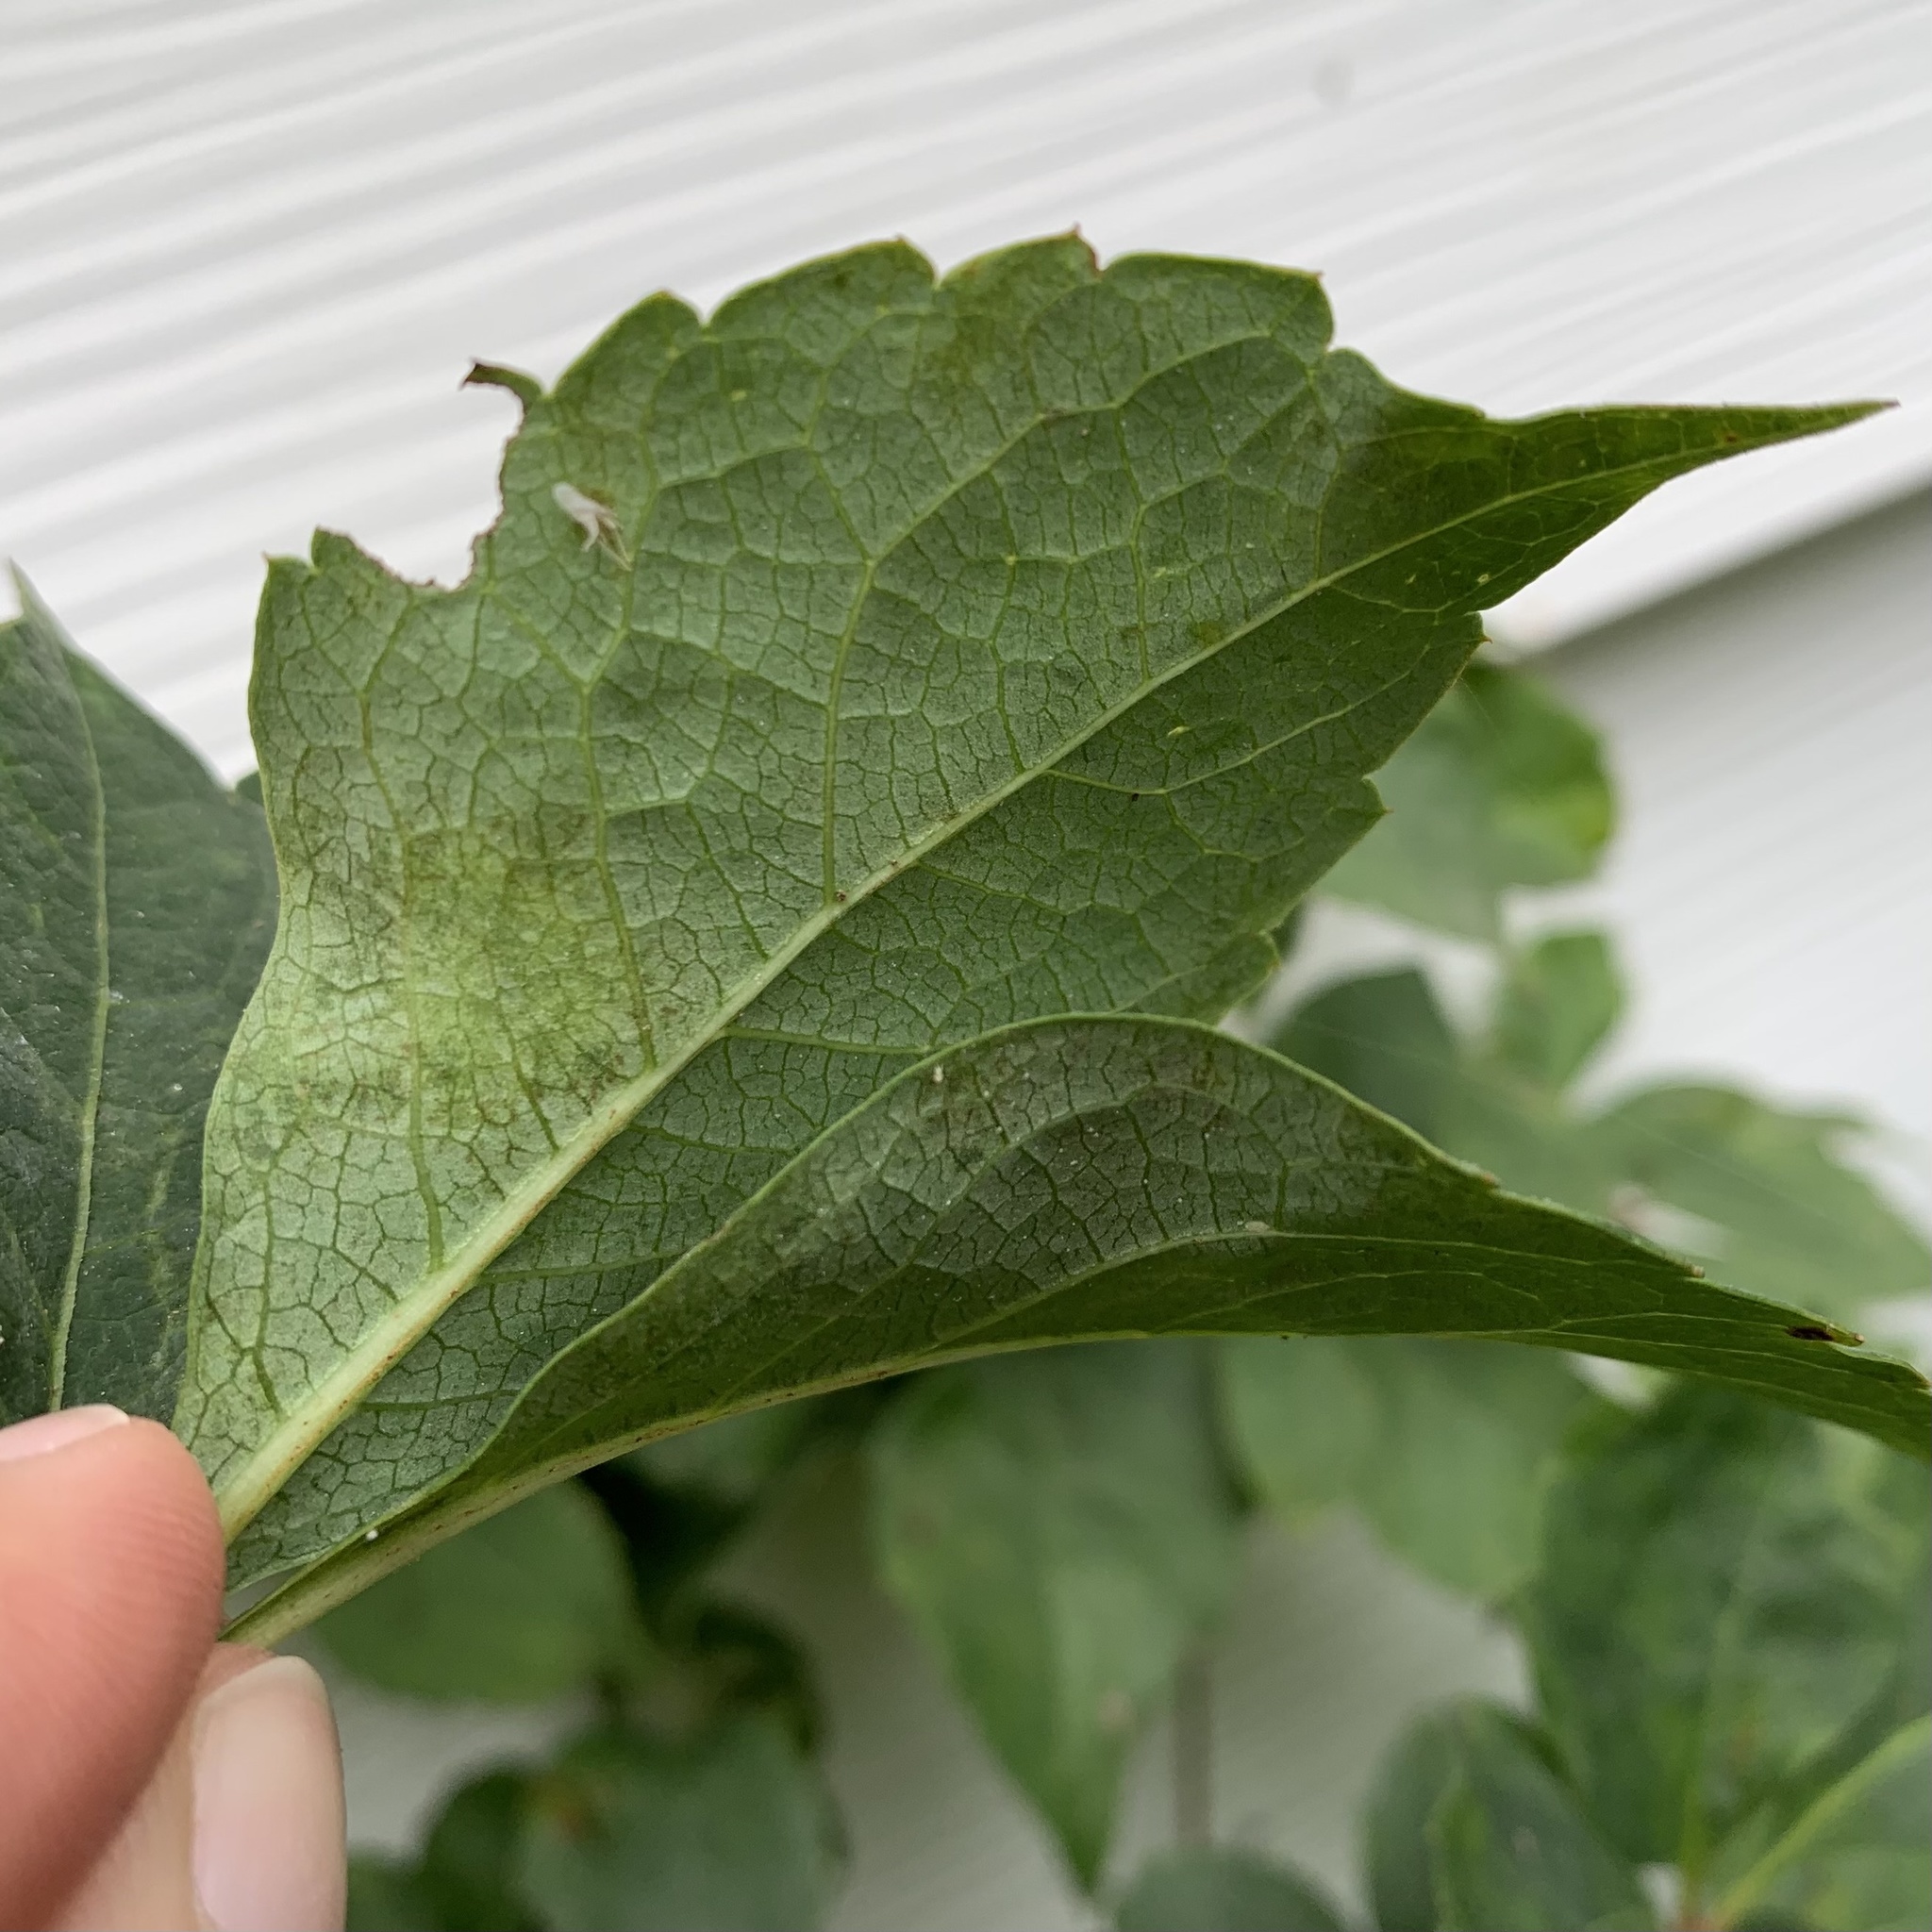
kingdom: Animalia
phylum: Arthropoda
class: Insecta
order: Lepidoptera
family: Gracillariidae
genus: Phyllocnistis
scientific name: Phyllocnistis vitegenella
